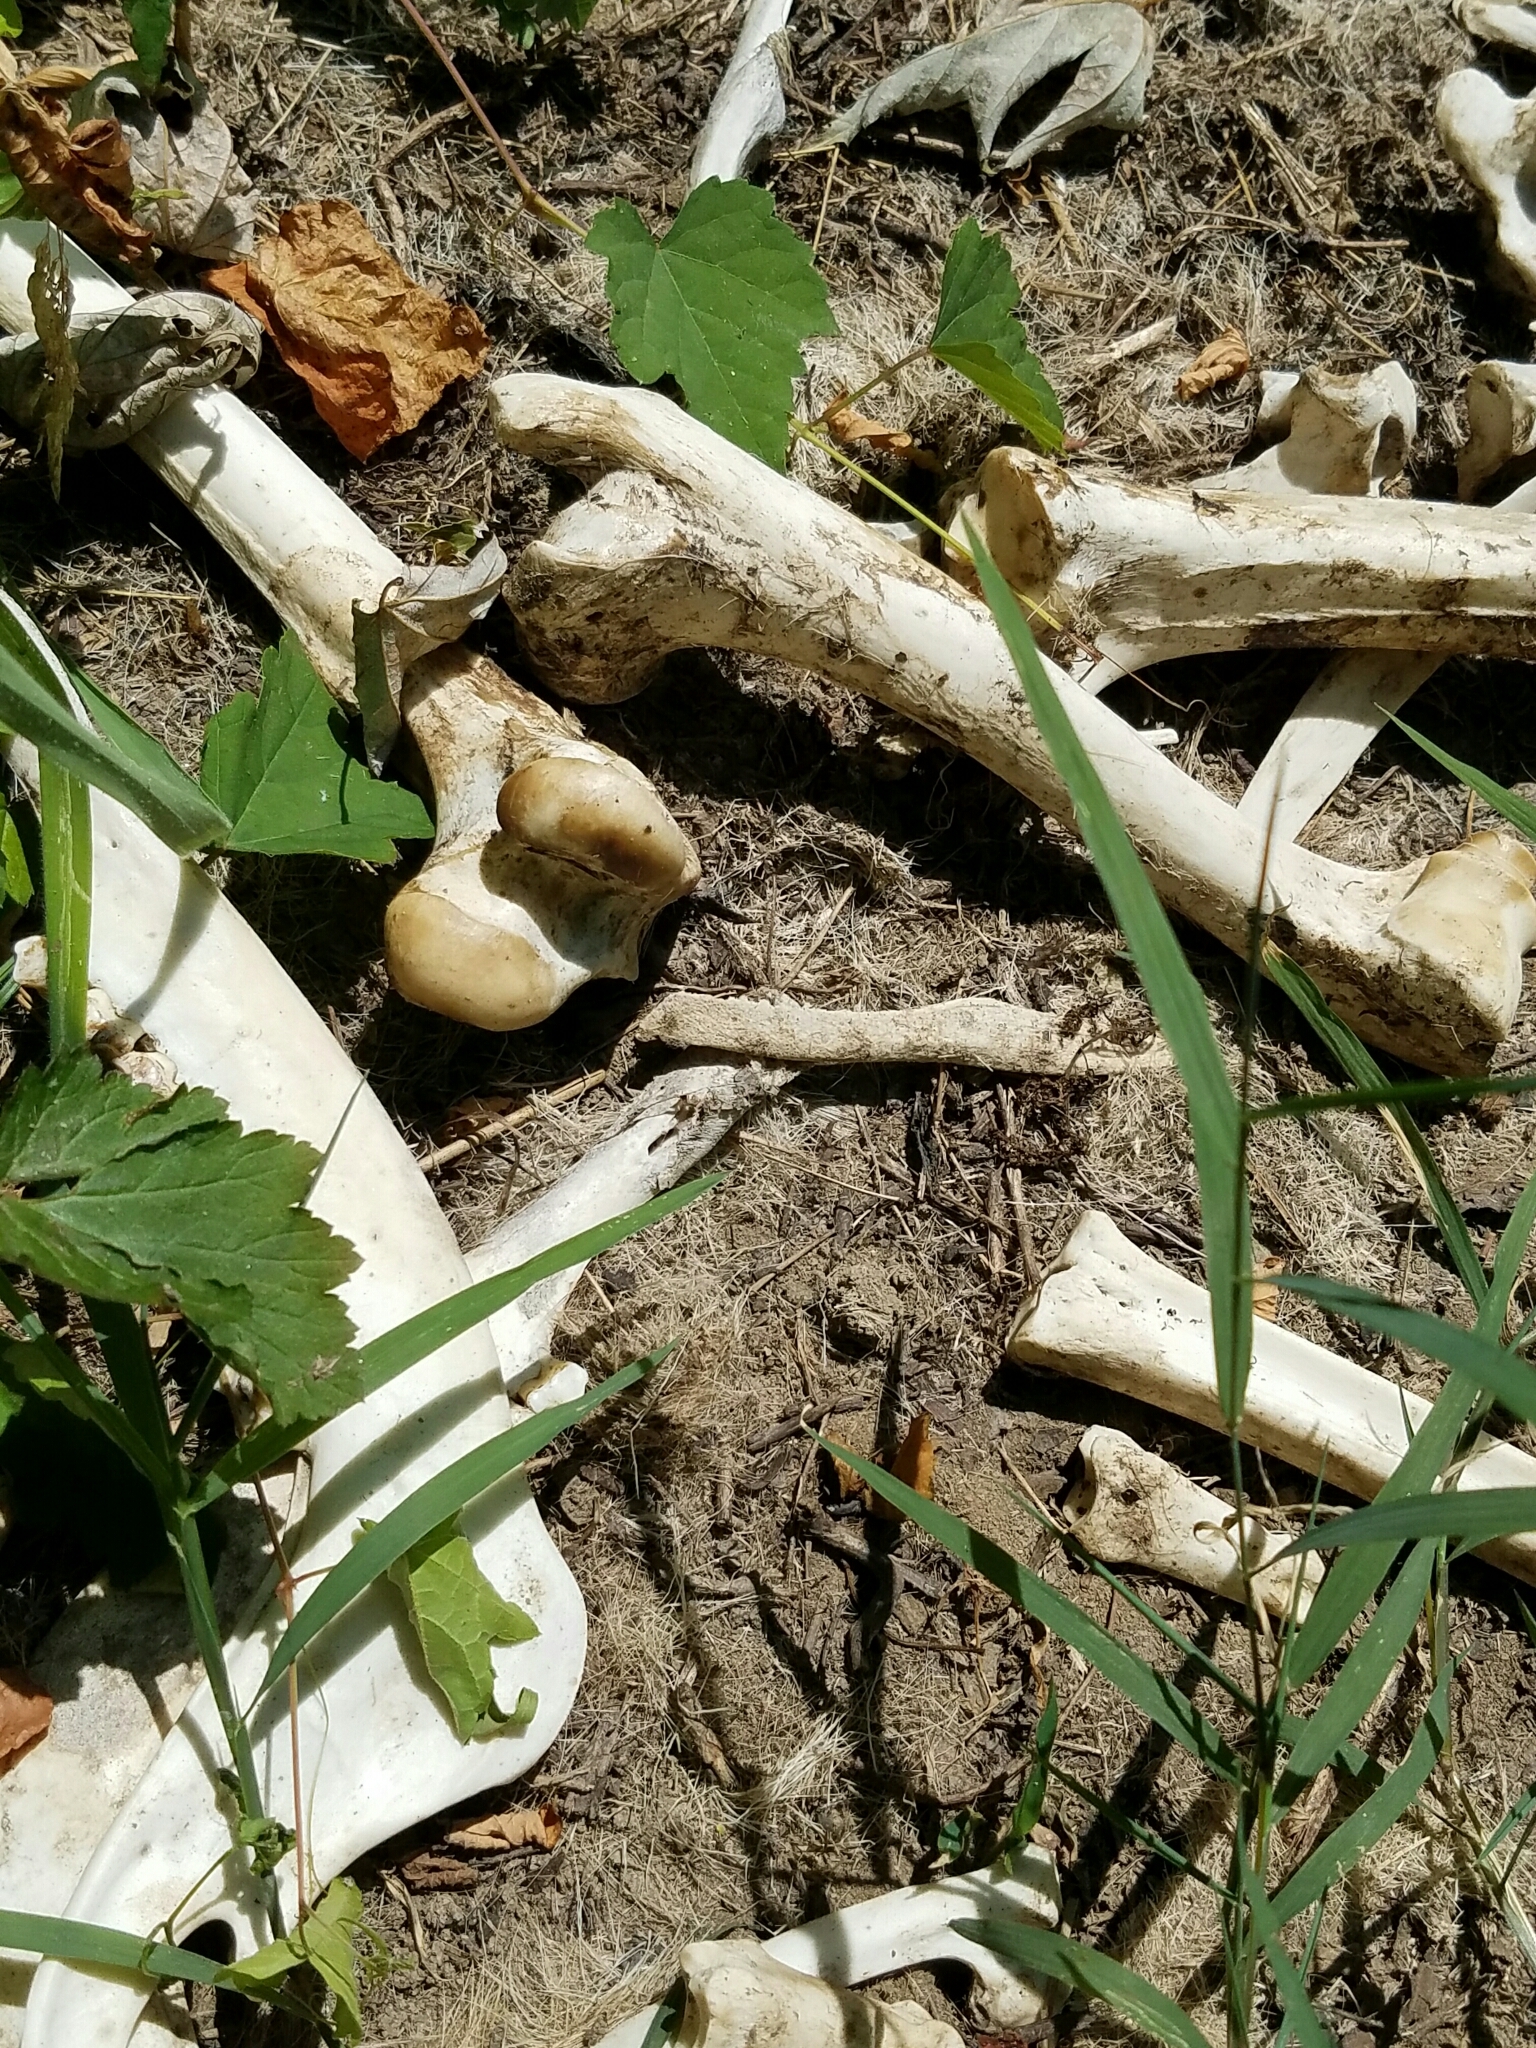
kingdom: Animalia
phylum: Chordata
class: Mammalia
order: Artiodactyla
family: Cervidae
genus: Odocoileus
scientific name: Odocoileus virginianus
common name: White-tailed deer
